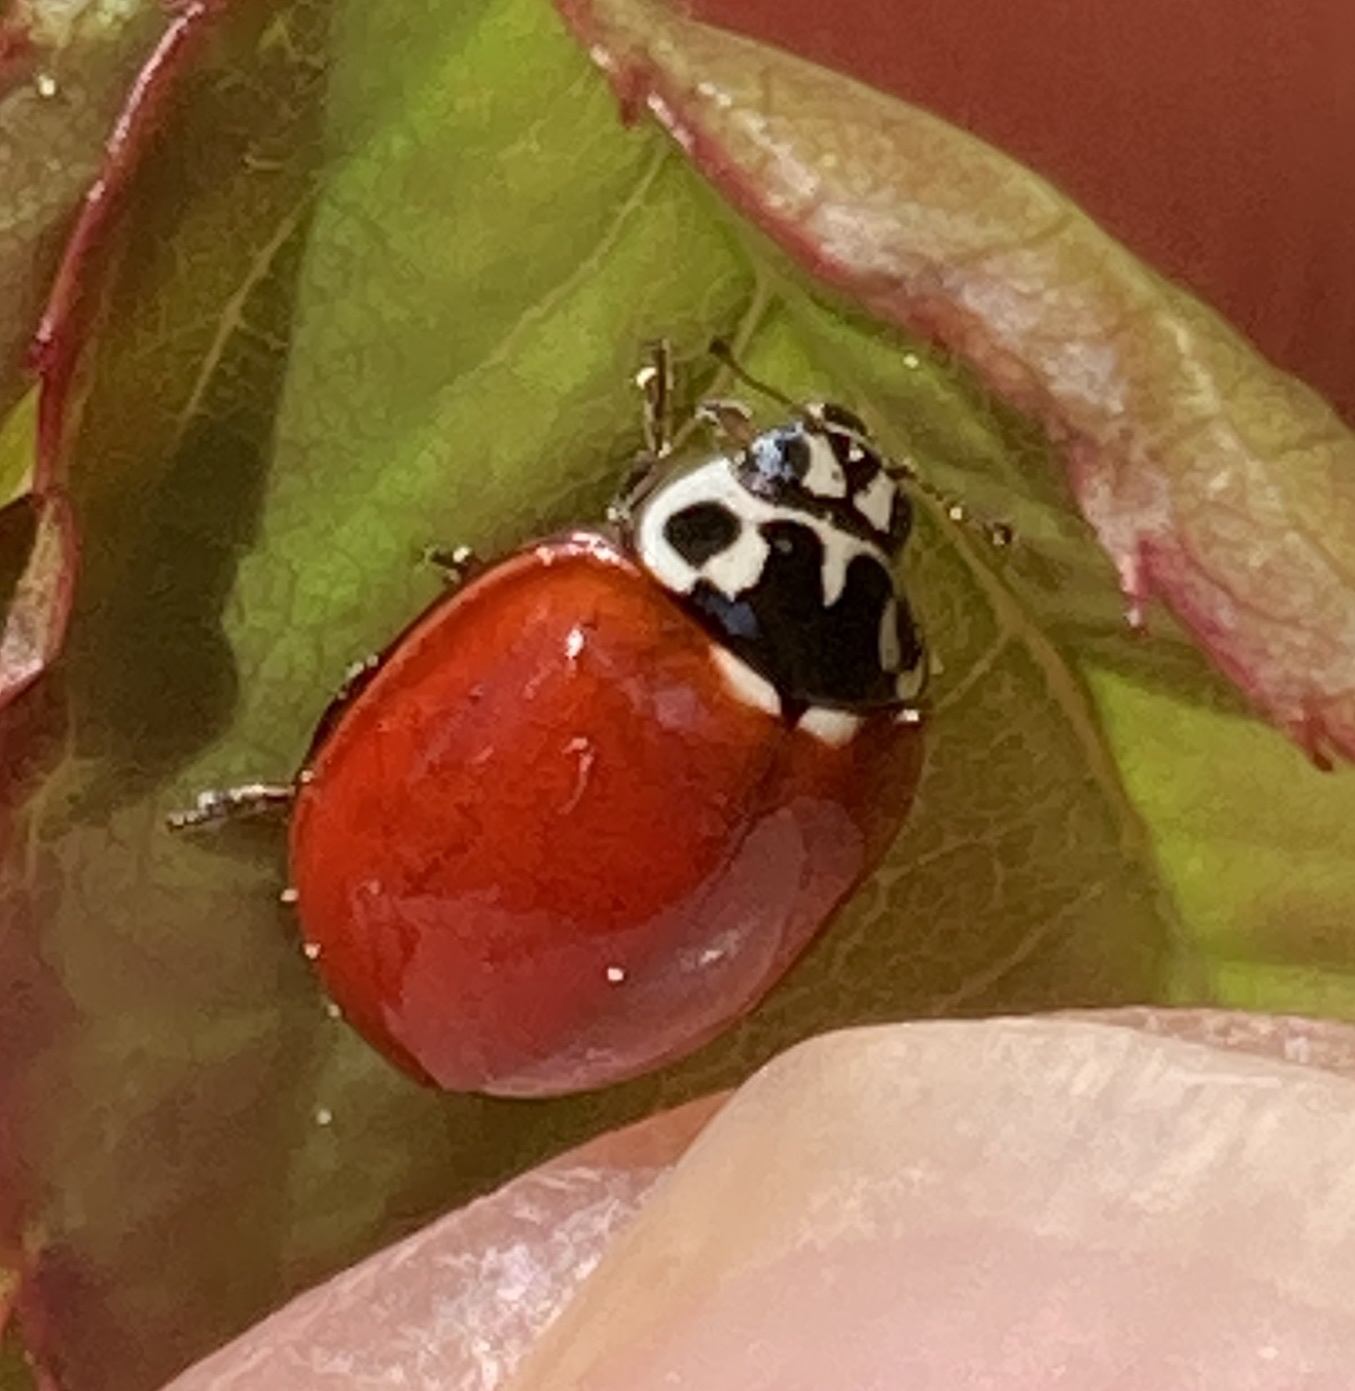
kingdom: Animalia
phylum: Arthropoda
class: Insecta
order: Coleoptera
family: Coccinellidae
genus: Cycloneda
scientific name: Cycloneda polita
